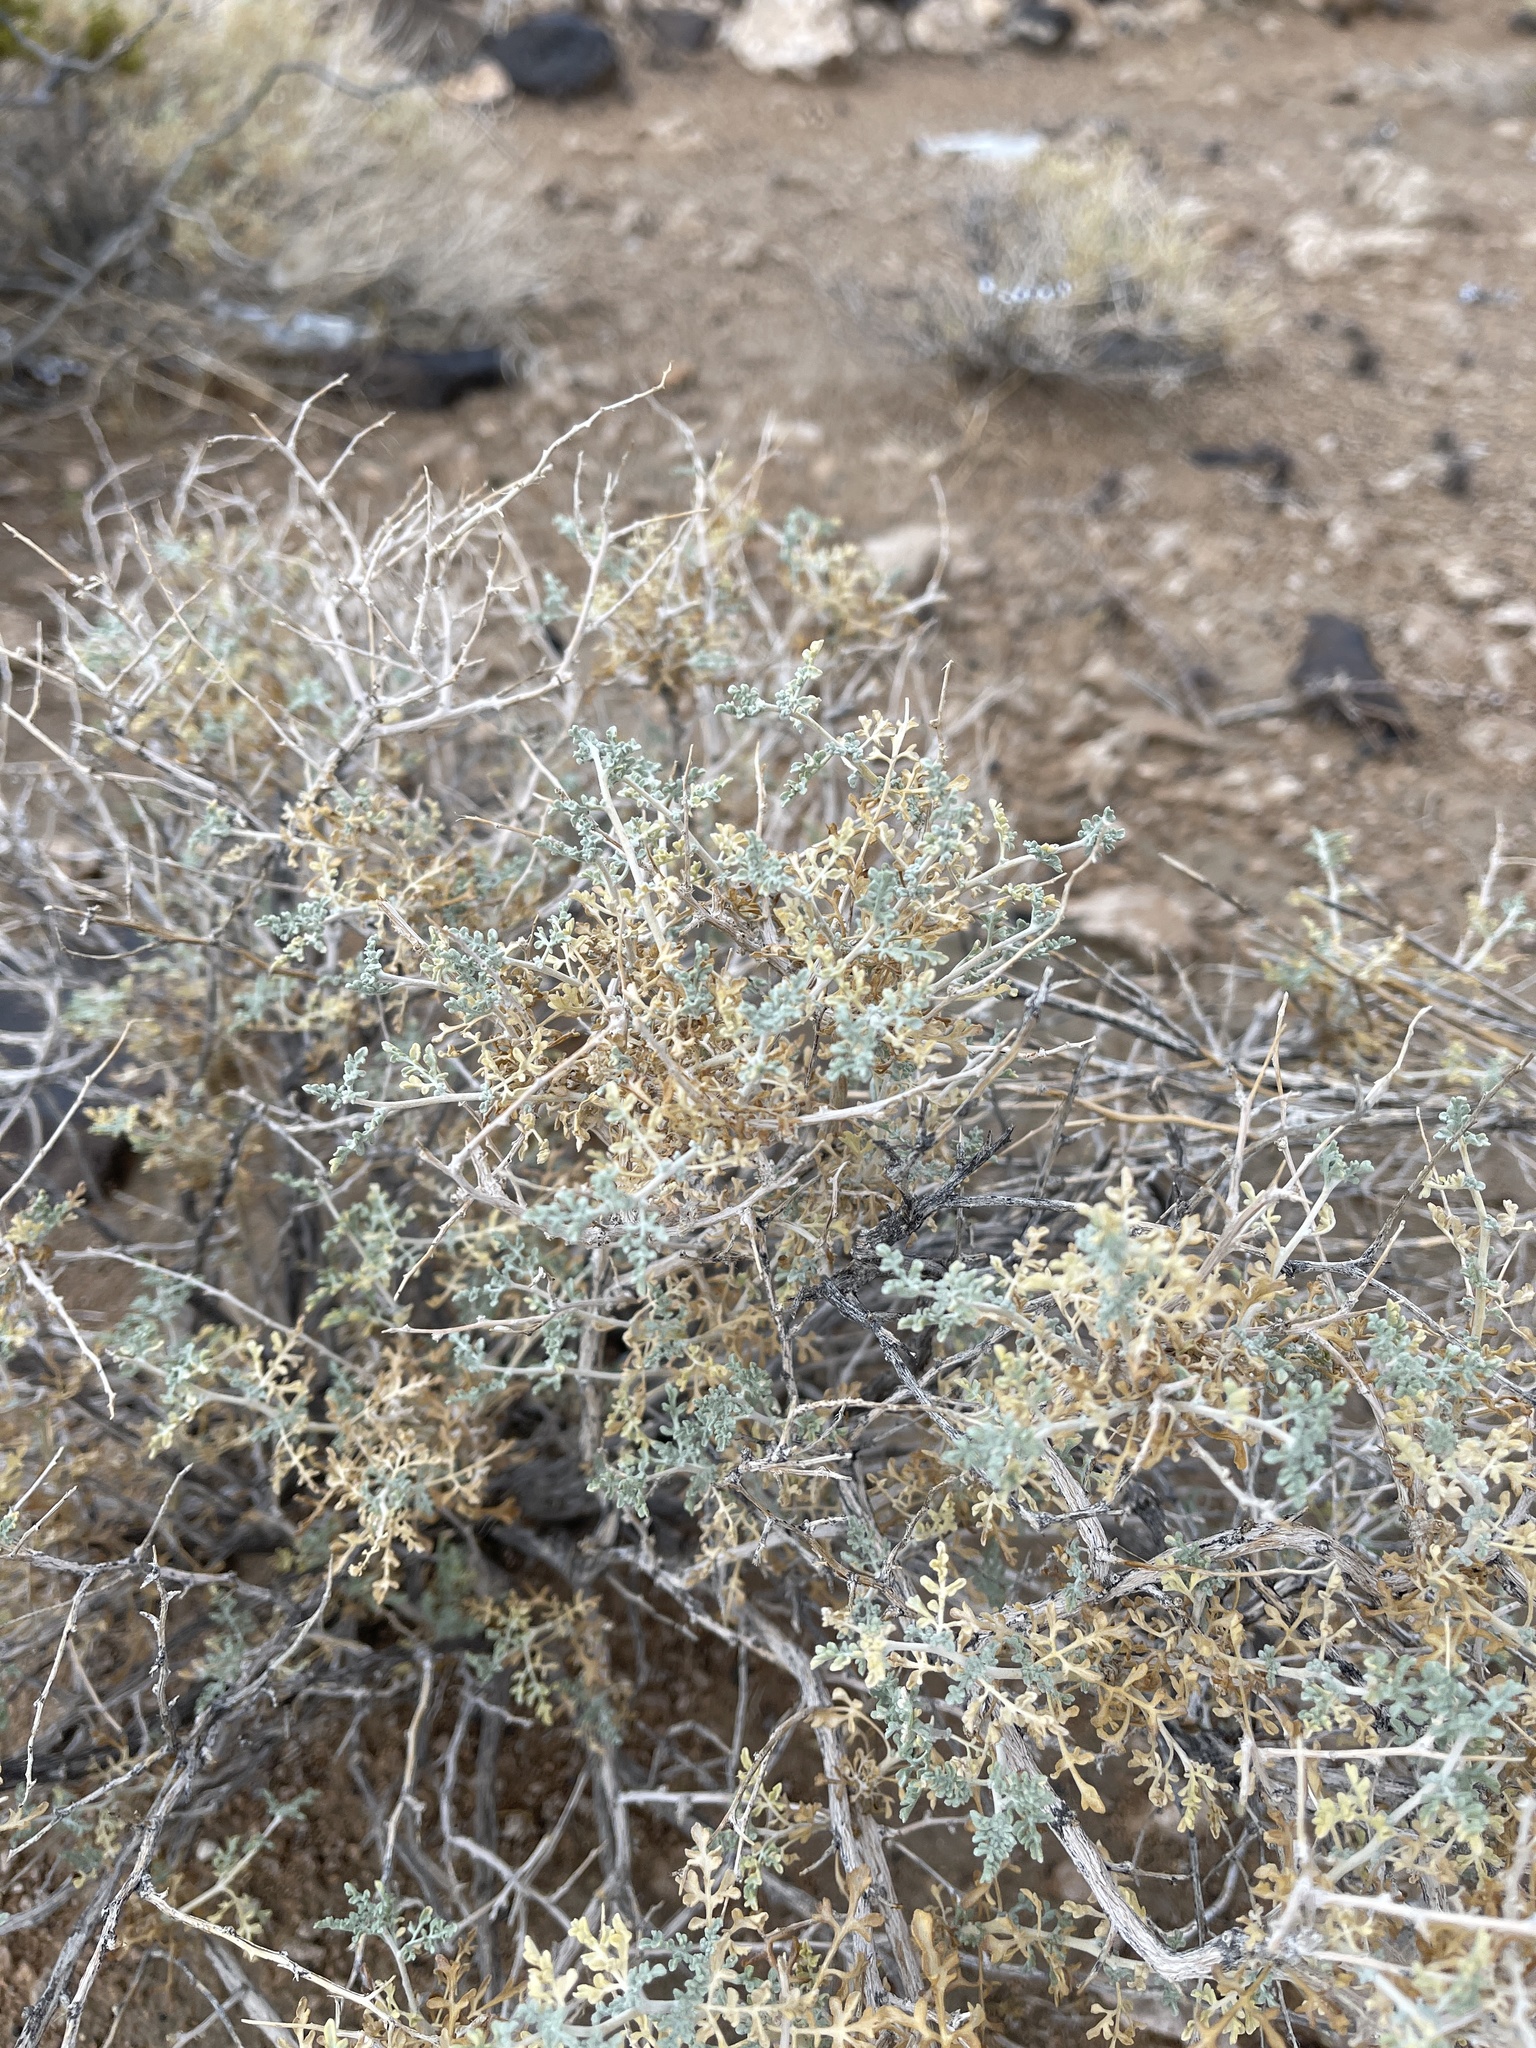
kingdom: Plantae
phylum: Tracheophyta
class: Magnoliopsida
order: Asterales
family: Asteraceae
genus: Ambrosia
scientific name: Ambrosia dumosa
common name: Bur-sage
